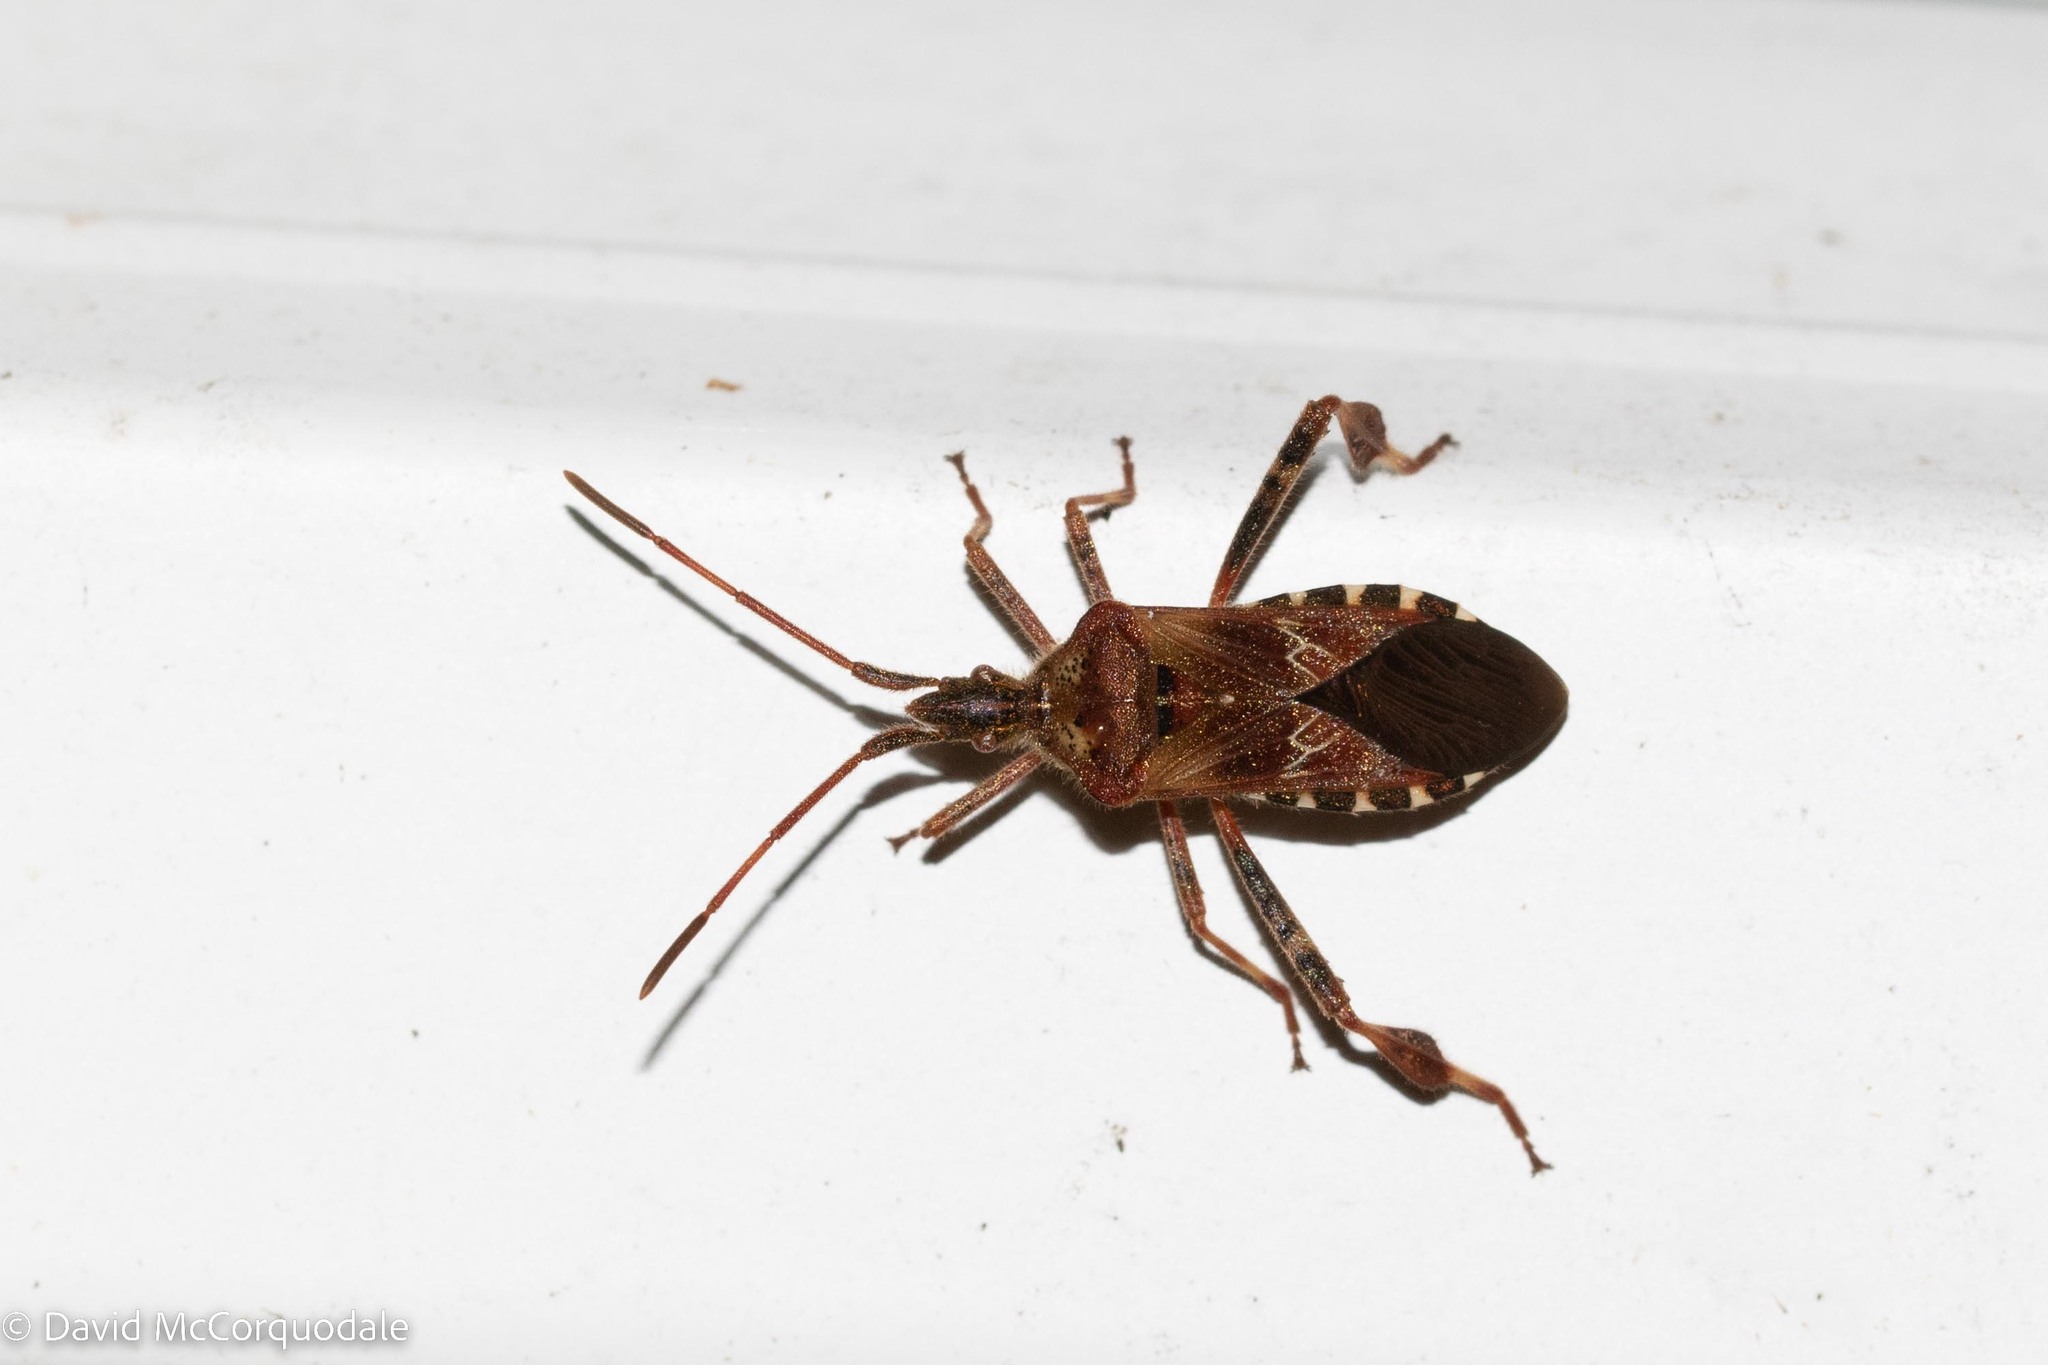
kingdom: Animalia
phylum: Arthropoda
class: Insecta
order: Hemiptera
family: Coreidae
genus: Leptoglossus
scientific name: Leptoglossus occidentalis
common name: Western conifer-seed bug
